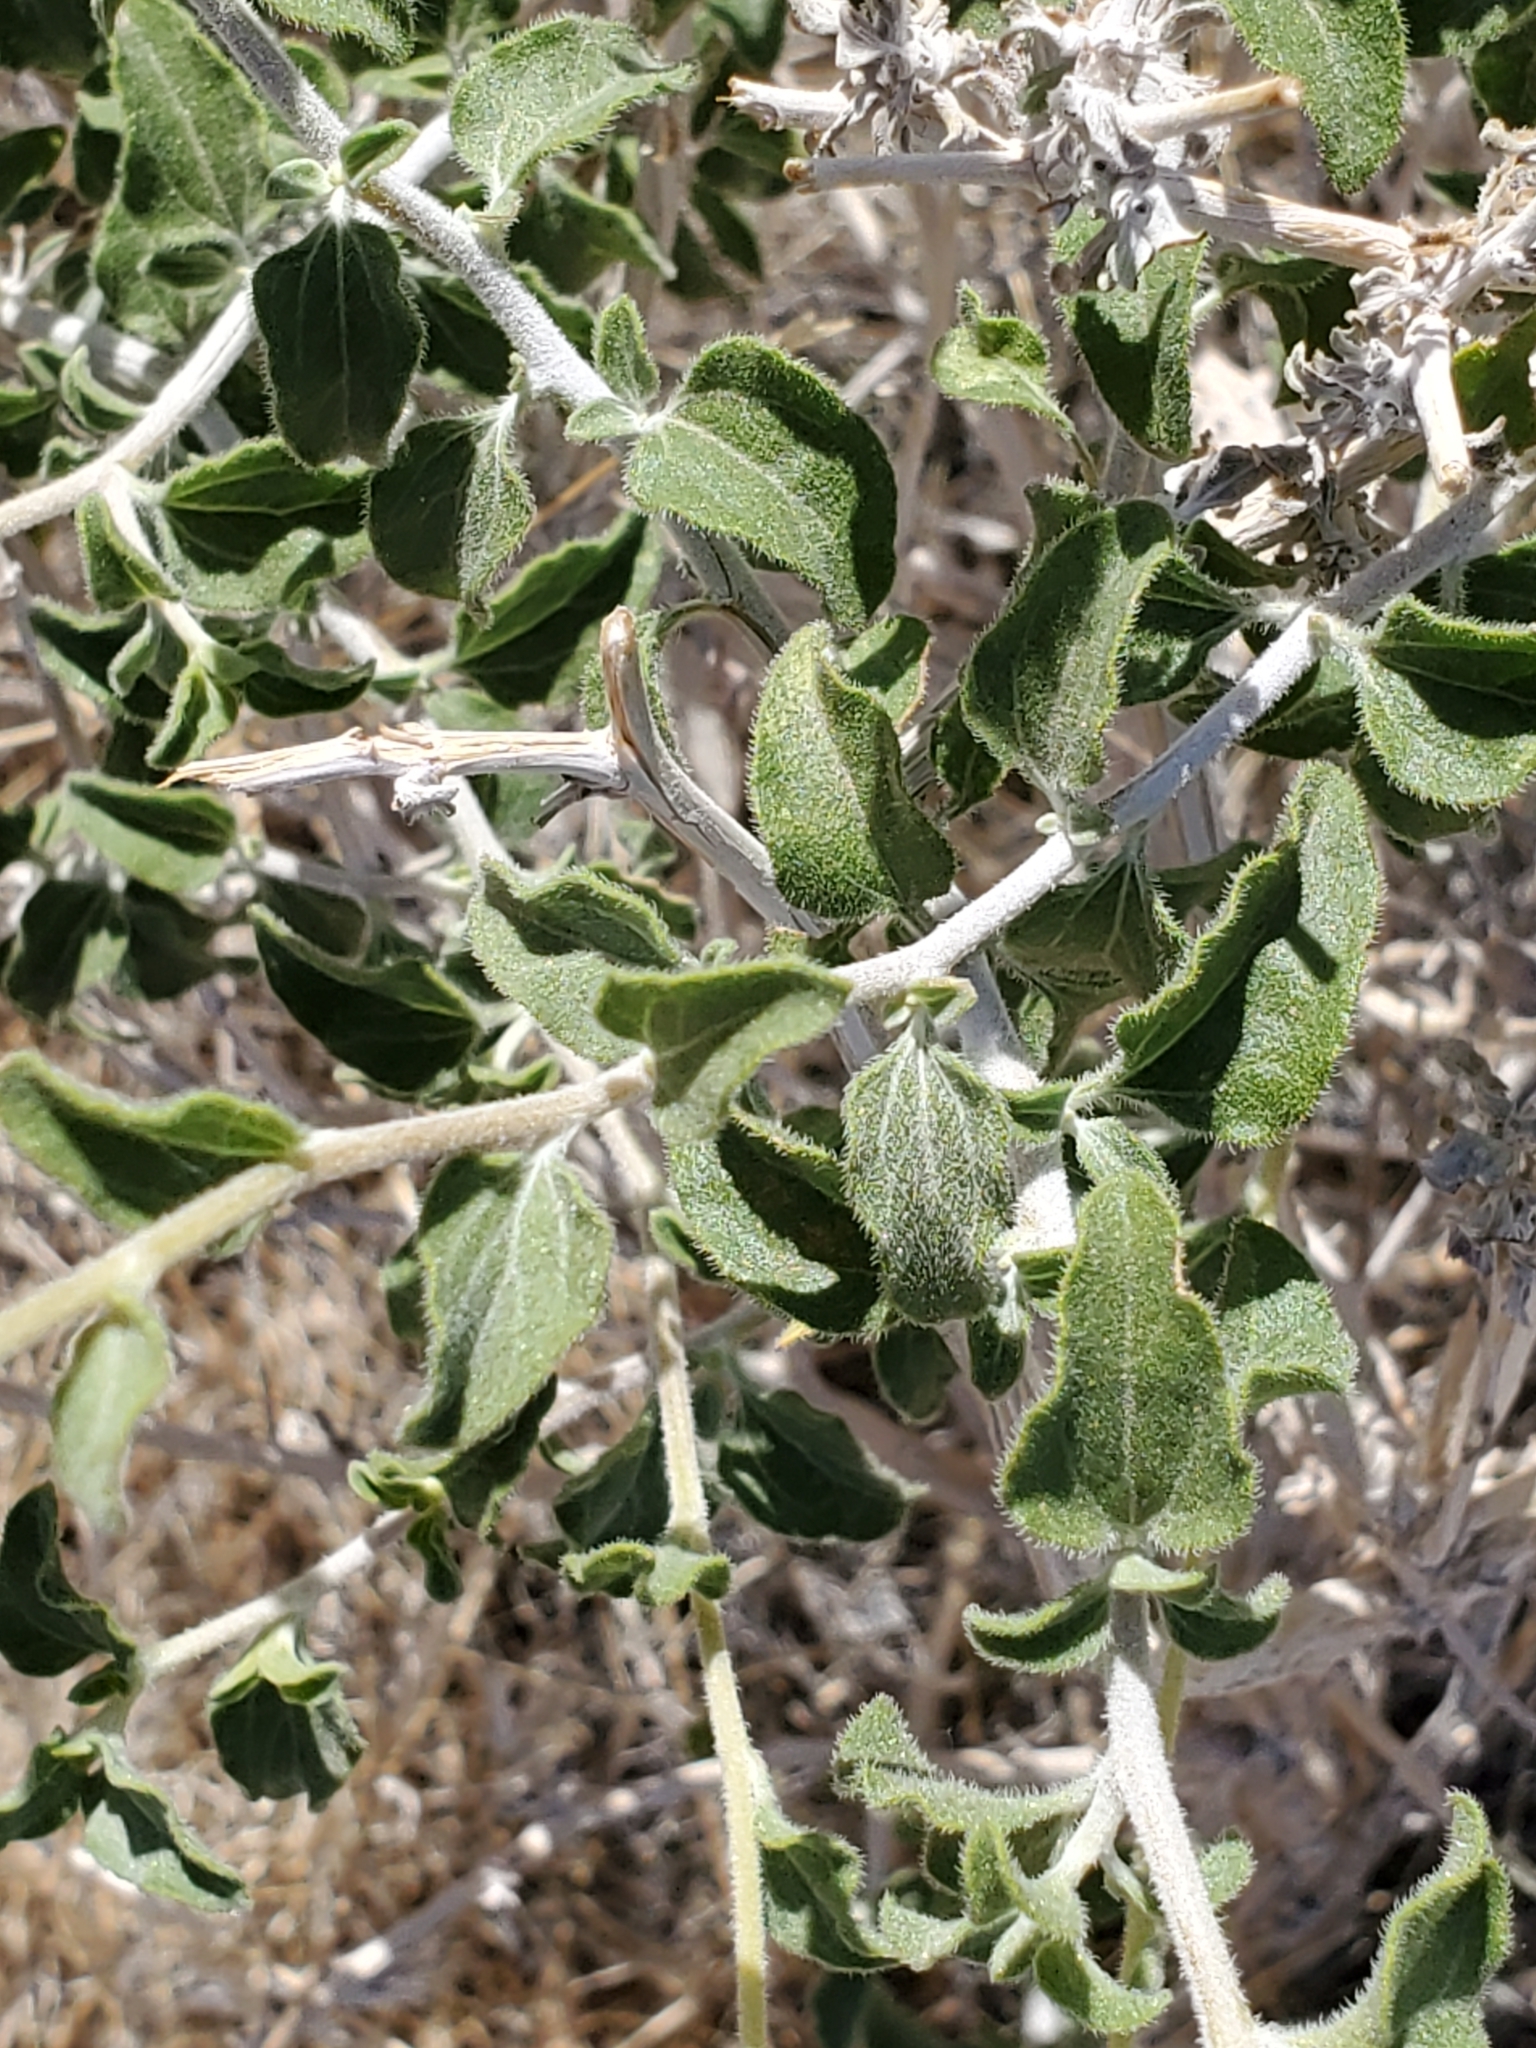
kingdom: Plantae
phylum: Tracheophyta
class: Magnoliopsida
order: Asterales
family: Asteraceae
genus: Encelia
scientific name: Encelia frutescens
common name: Bush encelia
